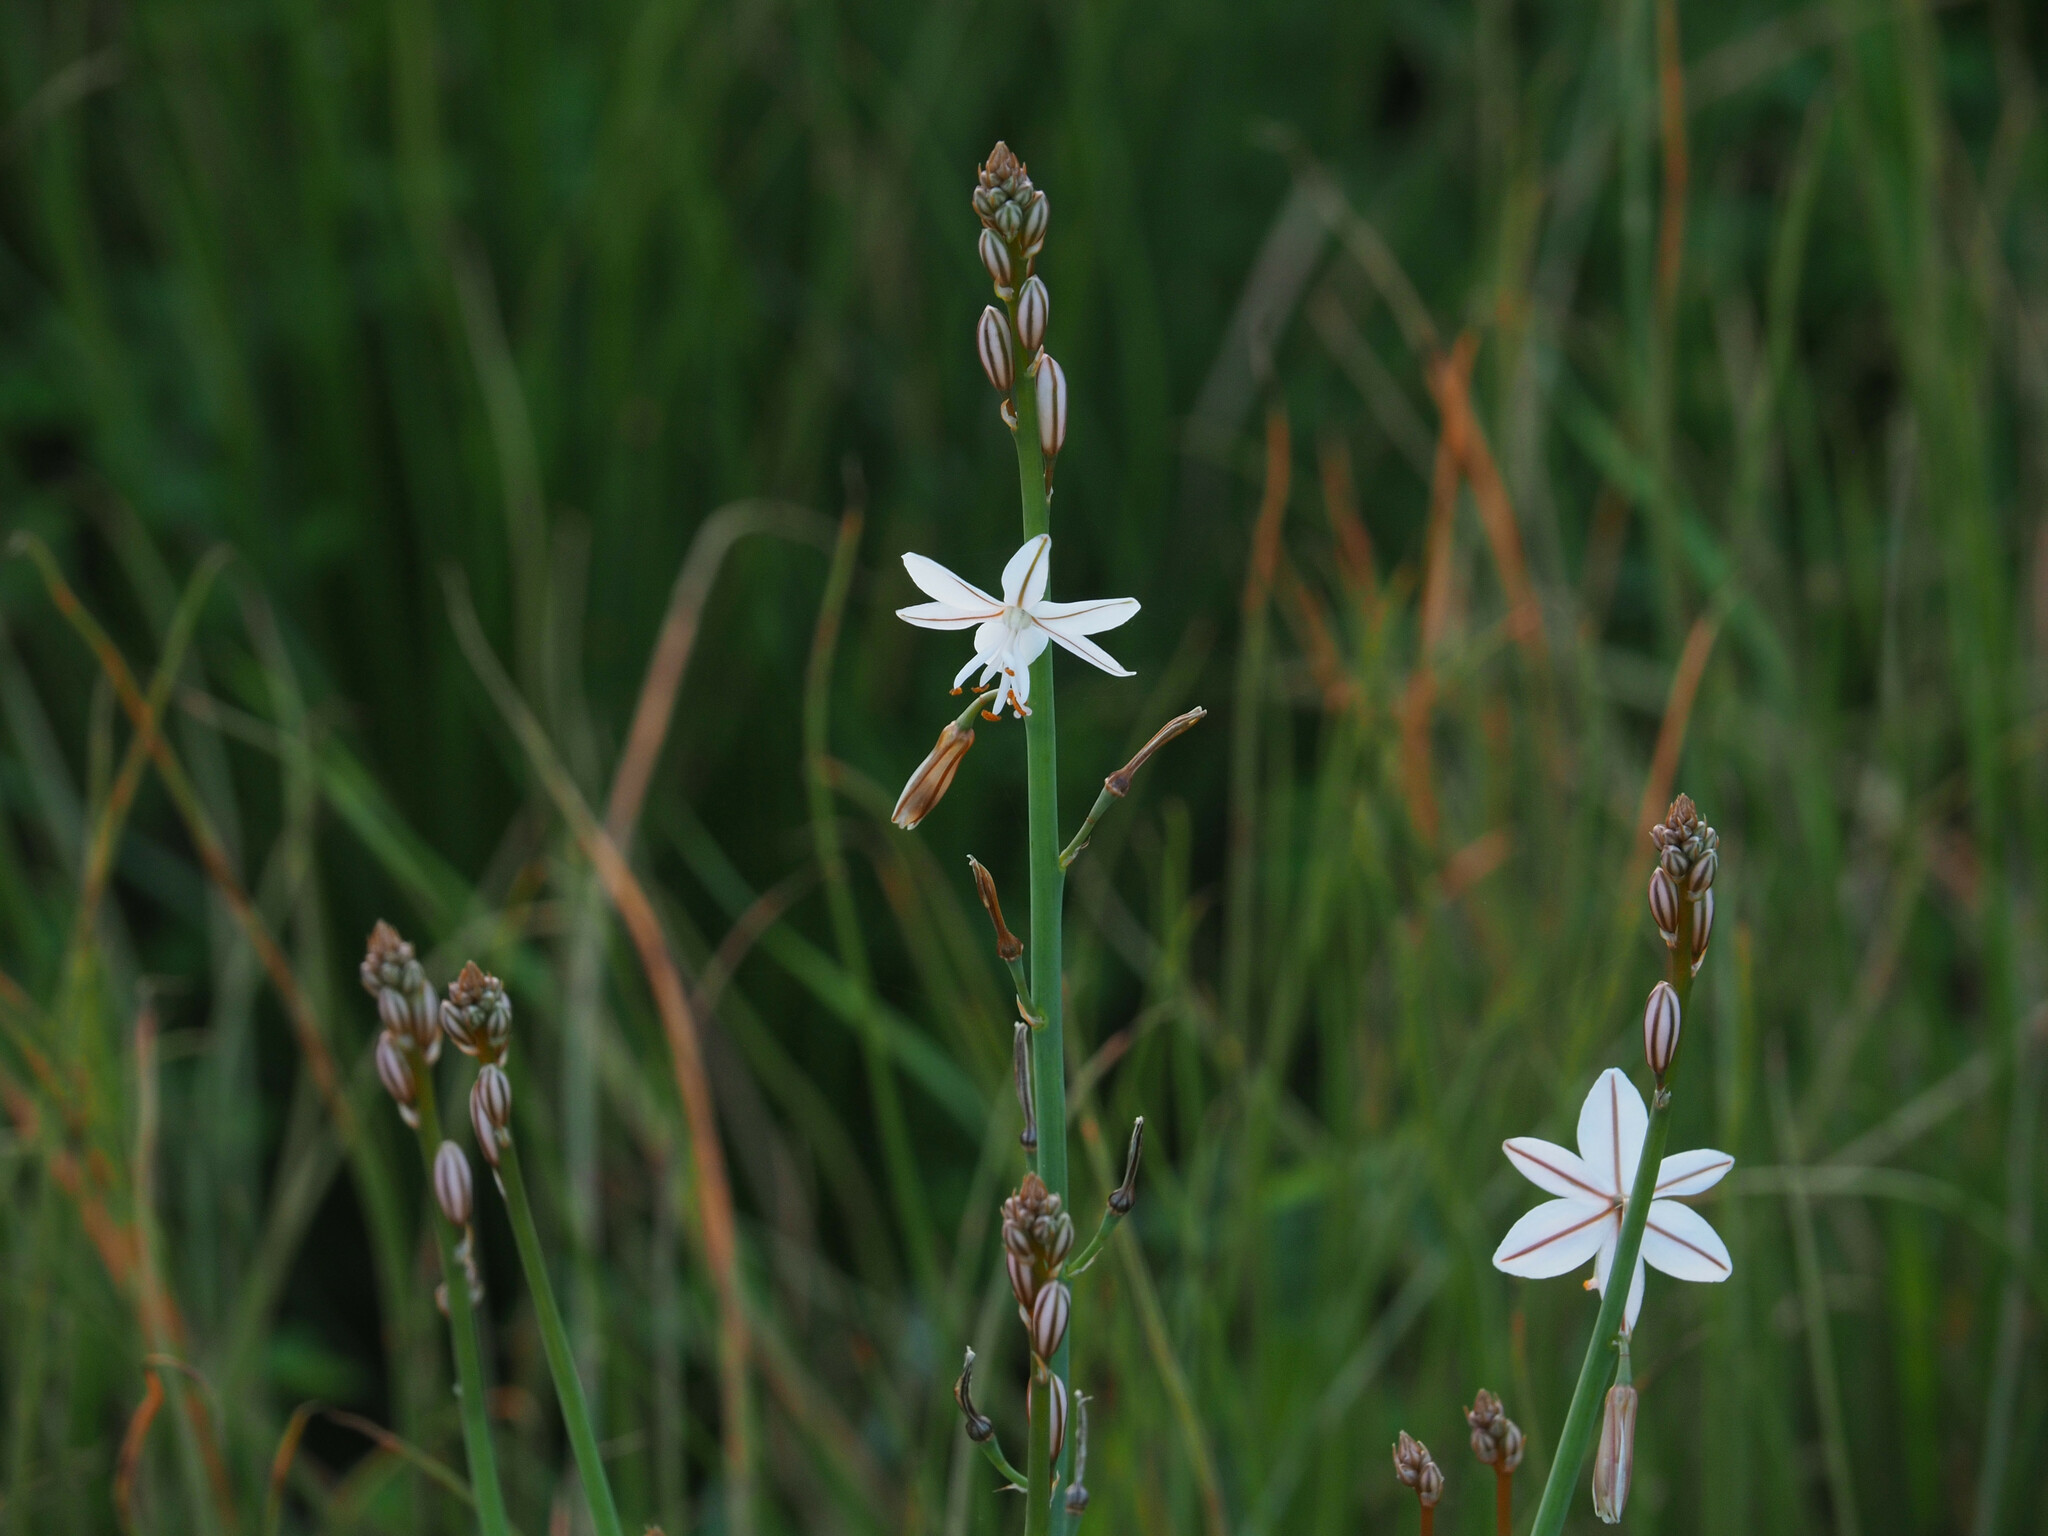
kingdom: Plantae
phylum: Tracheophyta
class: Liliopsida
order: Asparagales
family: Asphodelaceae
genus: Asphodelus
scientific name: Asphodelus fistulosus
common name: Onionweed
